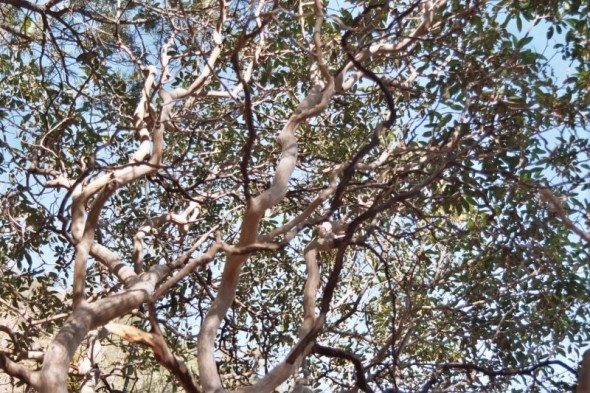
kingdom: Plantae
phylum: Tracheophyta
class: Magnoliopsida
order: Ericales
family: Ericaceae
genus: Arbutus
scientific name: Arbutus xalapensis
